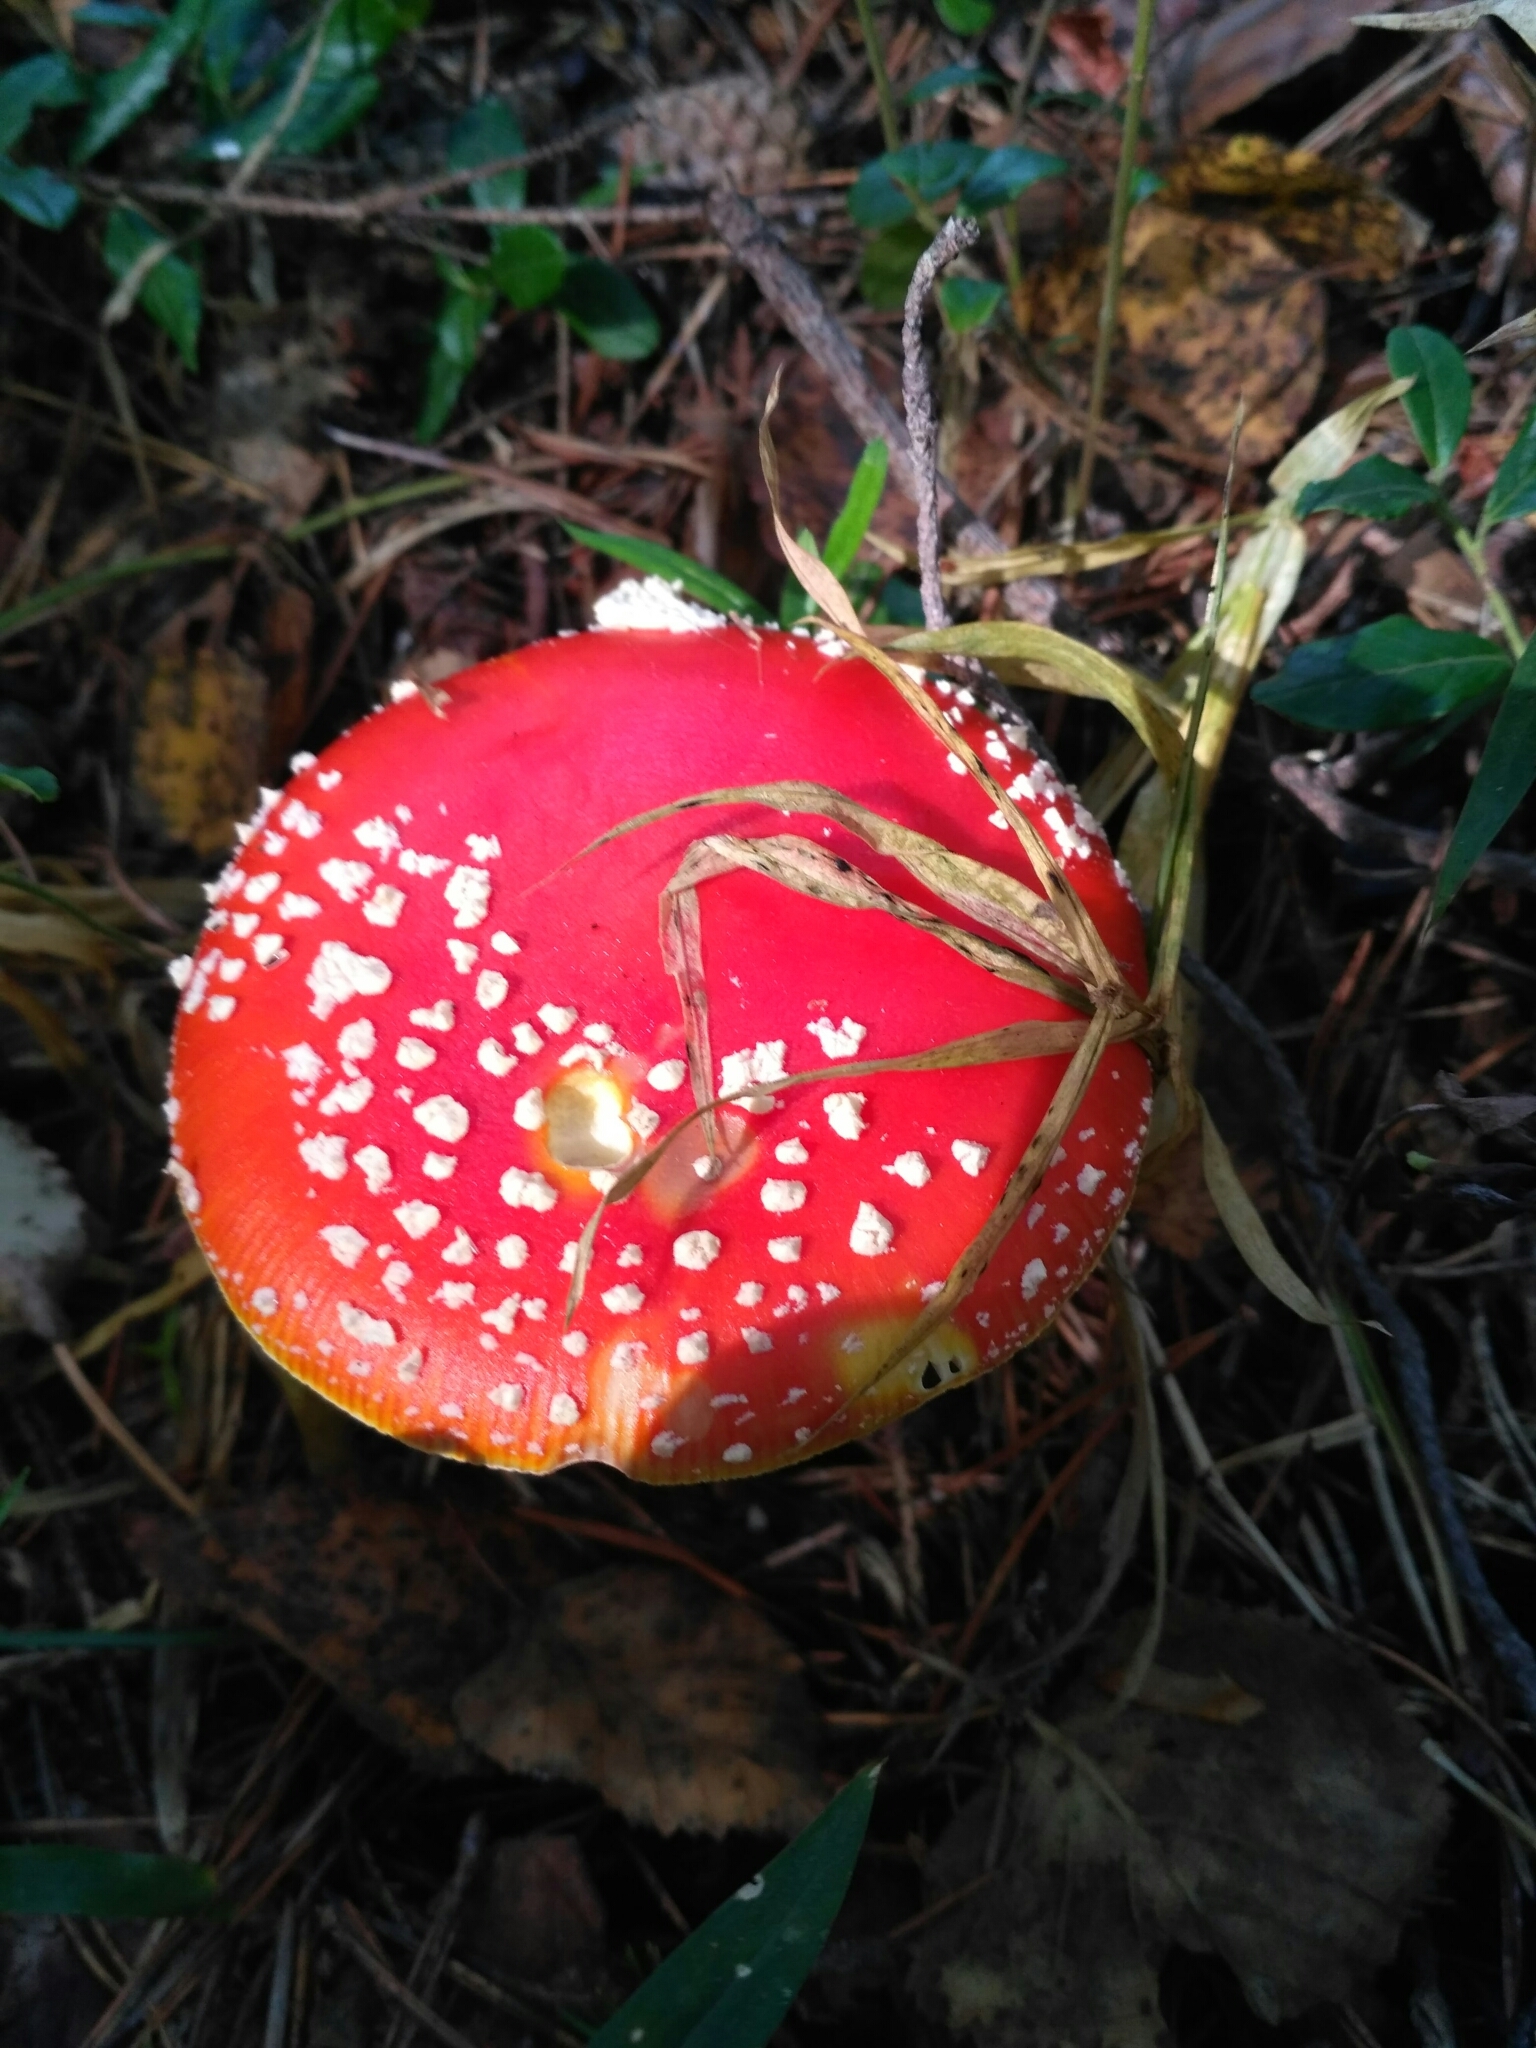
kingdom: Fungi
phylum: Basidiomycota
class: Agaricomycetes
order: Agaricales
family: Amanitaceae
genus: Amanita
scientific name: Amanita muscaria
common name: Fly agaric
